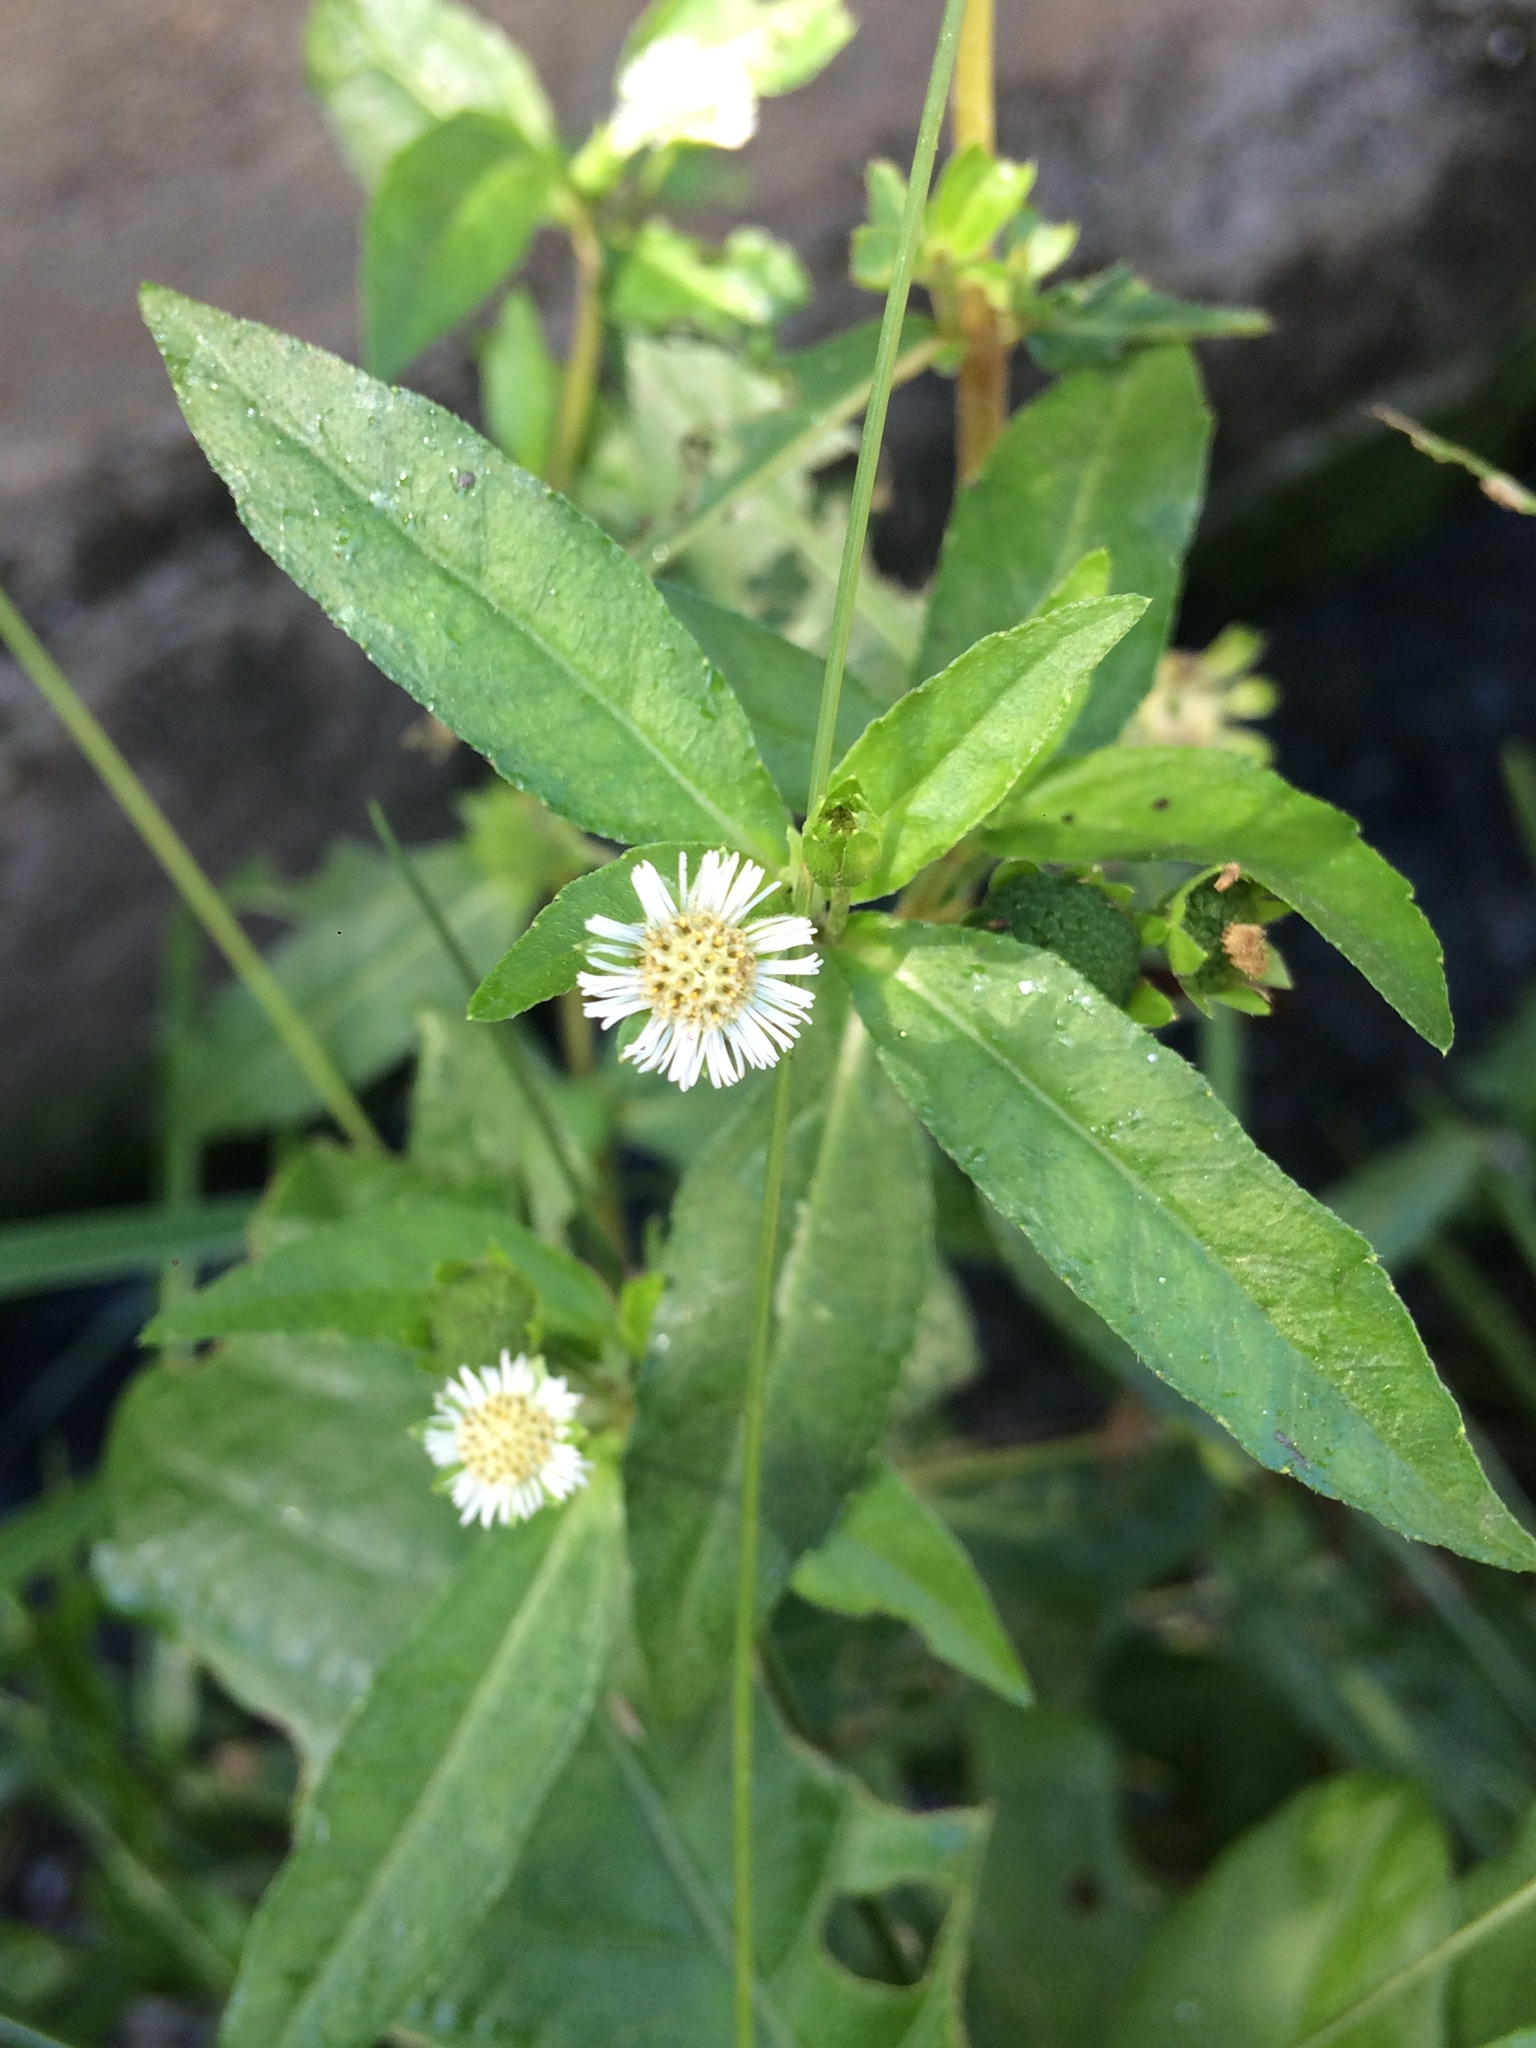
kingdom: Plantae
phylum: Tracheophyta
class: Magnoliopsida
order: Asterales
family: Asteraceae
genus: Eclipta
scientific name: Eclipta prostrata
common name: False daisy
